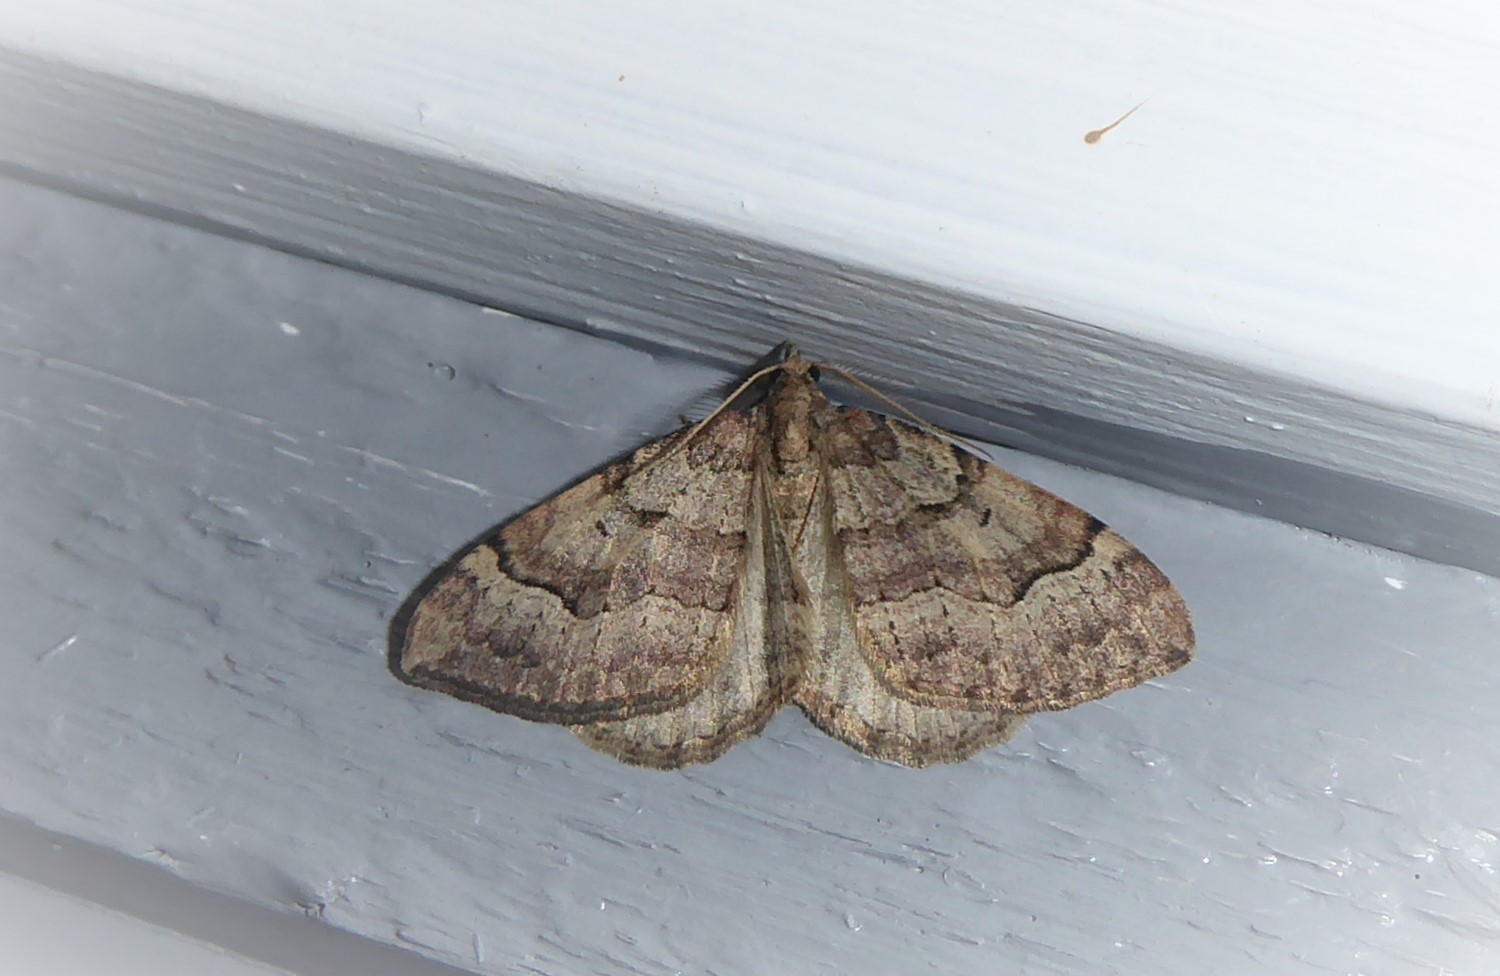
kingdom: Animalia
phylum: Arthropoda
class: Insecta
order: Lepidoptera
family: Geometridae
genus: Epyaxa
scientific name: Epyaxa rosearia
